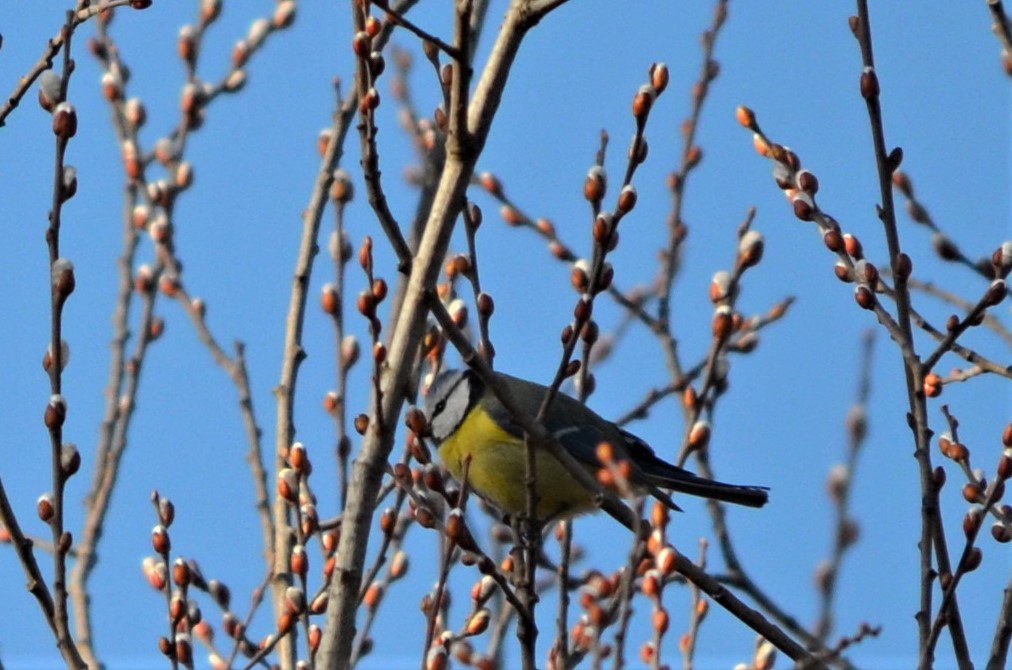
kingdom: Animalia
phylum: Chordata
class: Aves
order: Passeriformes
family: Paridae
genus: Cyanistes
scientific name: Cyanistes caeruleus
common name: Eurasian blue tit
